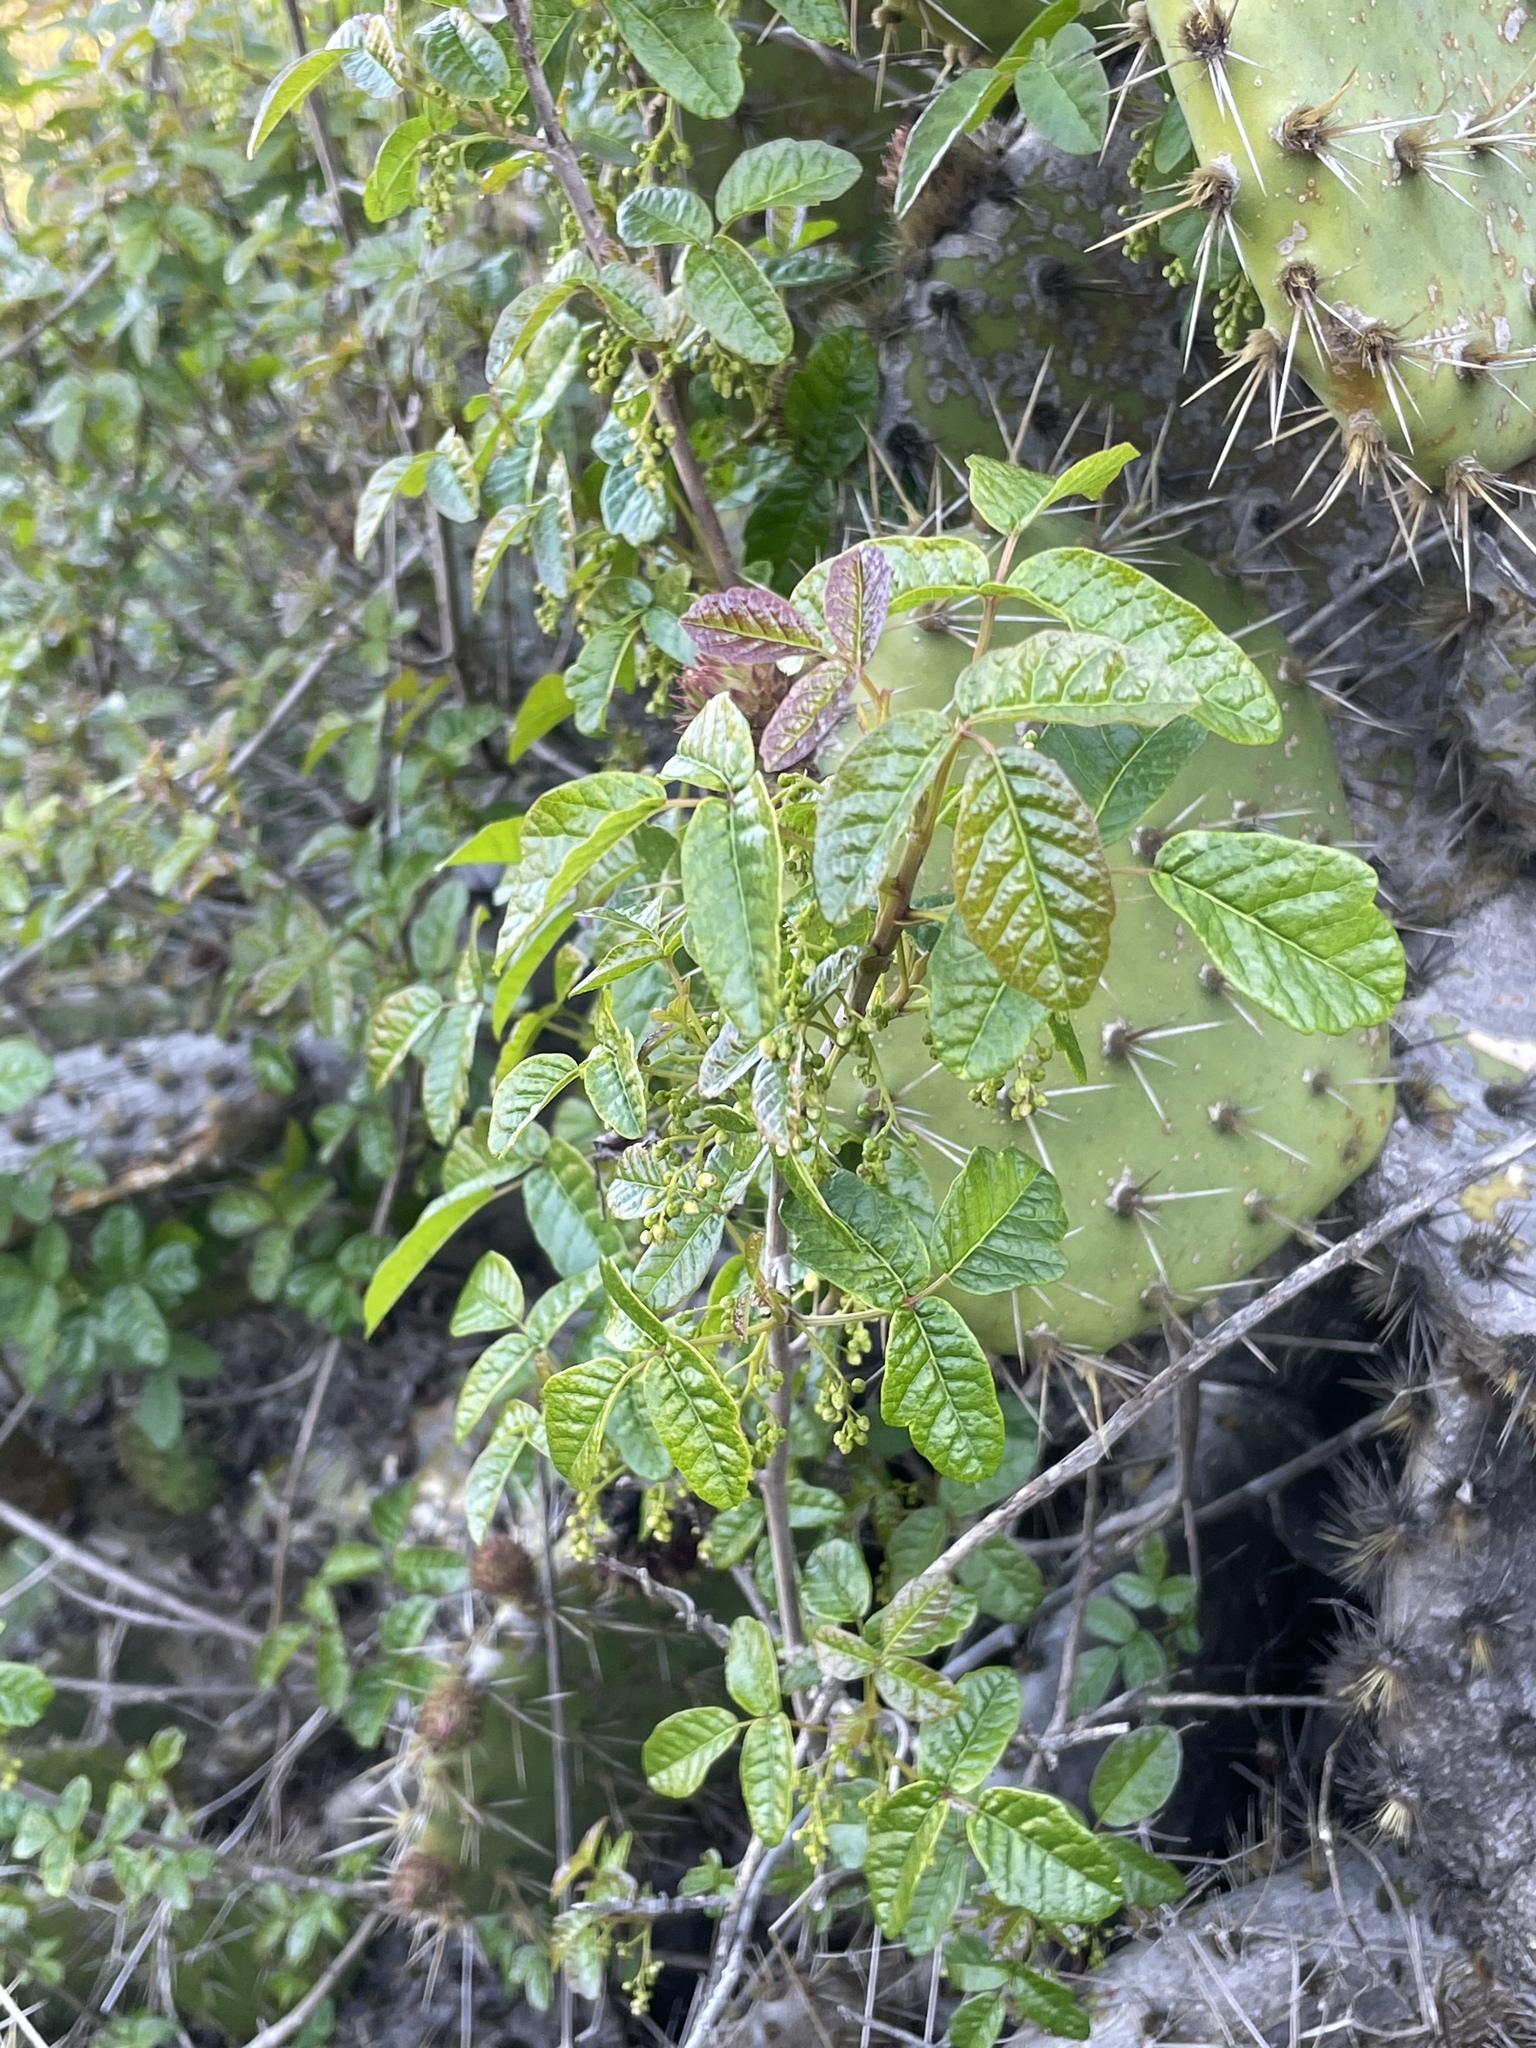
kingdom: Plantae
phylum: Tracheophyta
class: Magnoliopsida
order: Sapindales
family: Anacardiaceae
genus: Toxicodendron
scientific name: Toxicodendron diversilobum
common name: Pacific poison-oak
